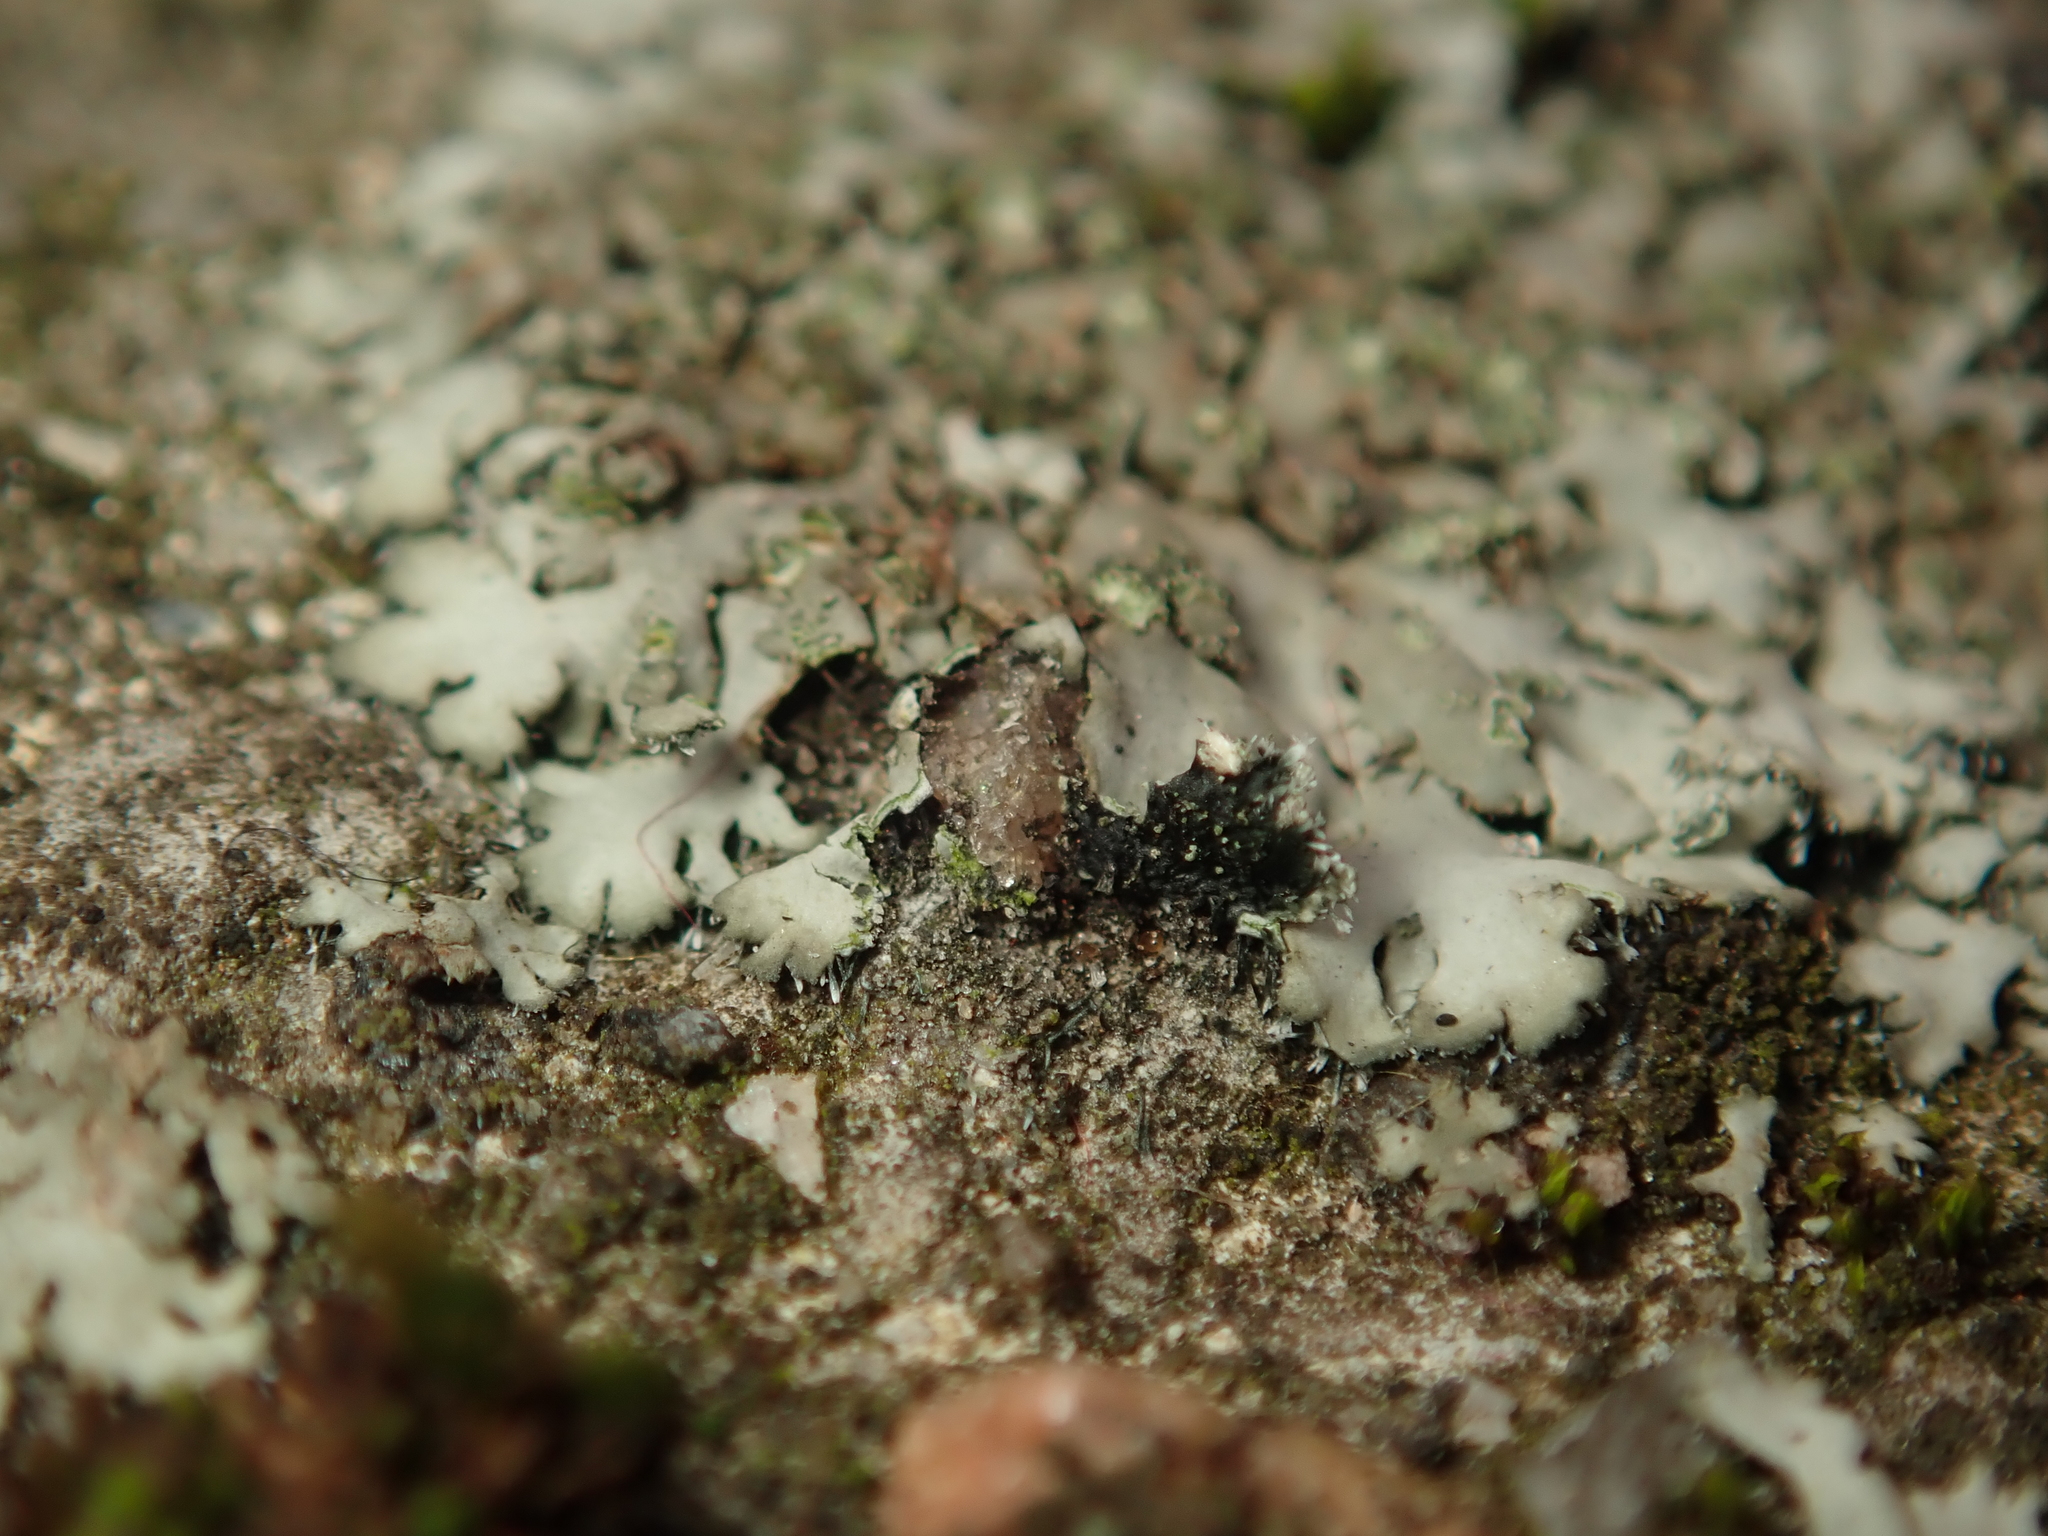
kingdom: Fungi
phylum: Ascomycota
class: Lecanoromycetes
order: Caliciales
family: Physciaceae
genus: Phaeophyscia
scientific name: Phaeophyscia orbicularis
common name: Mealy shadow lichen
